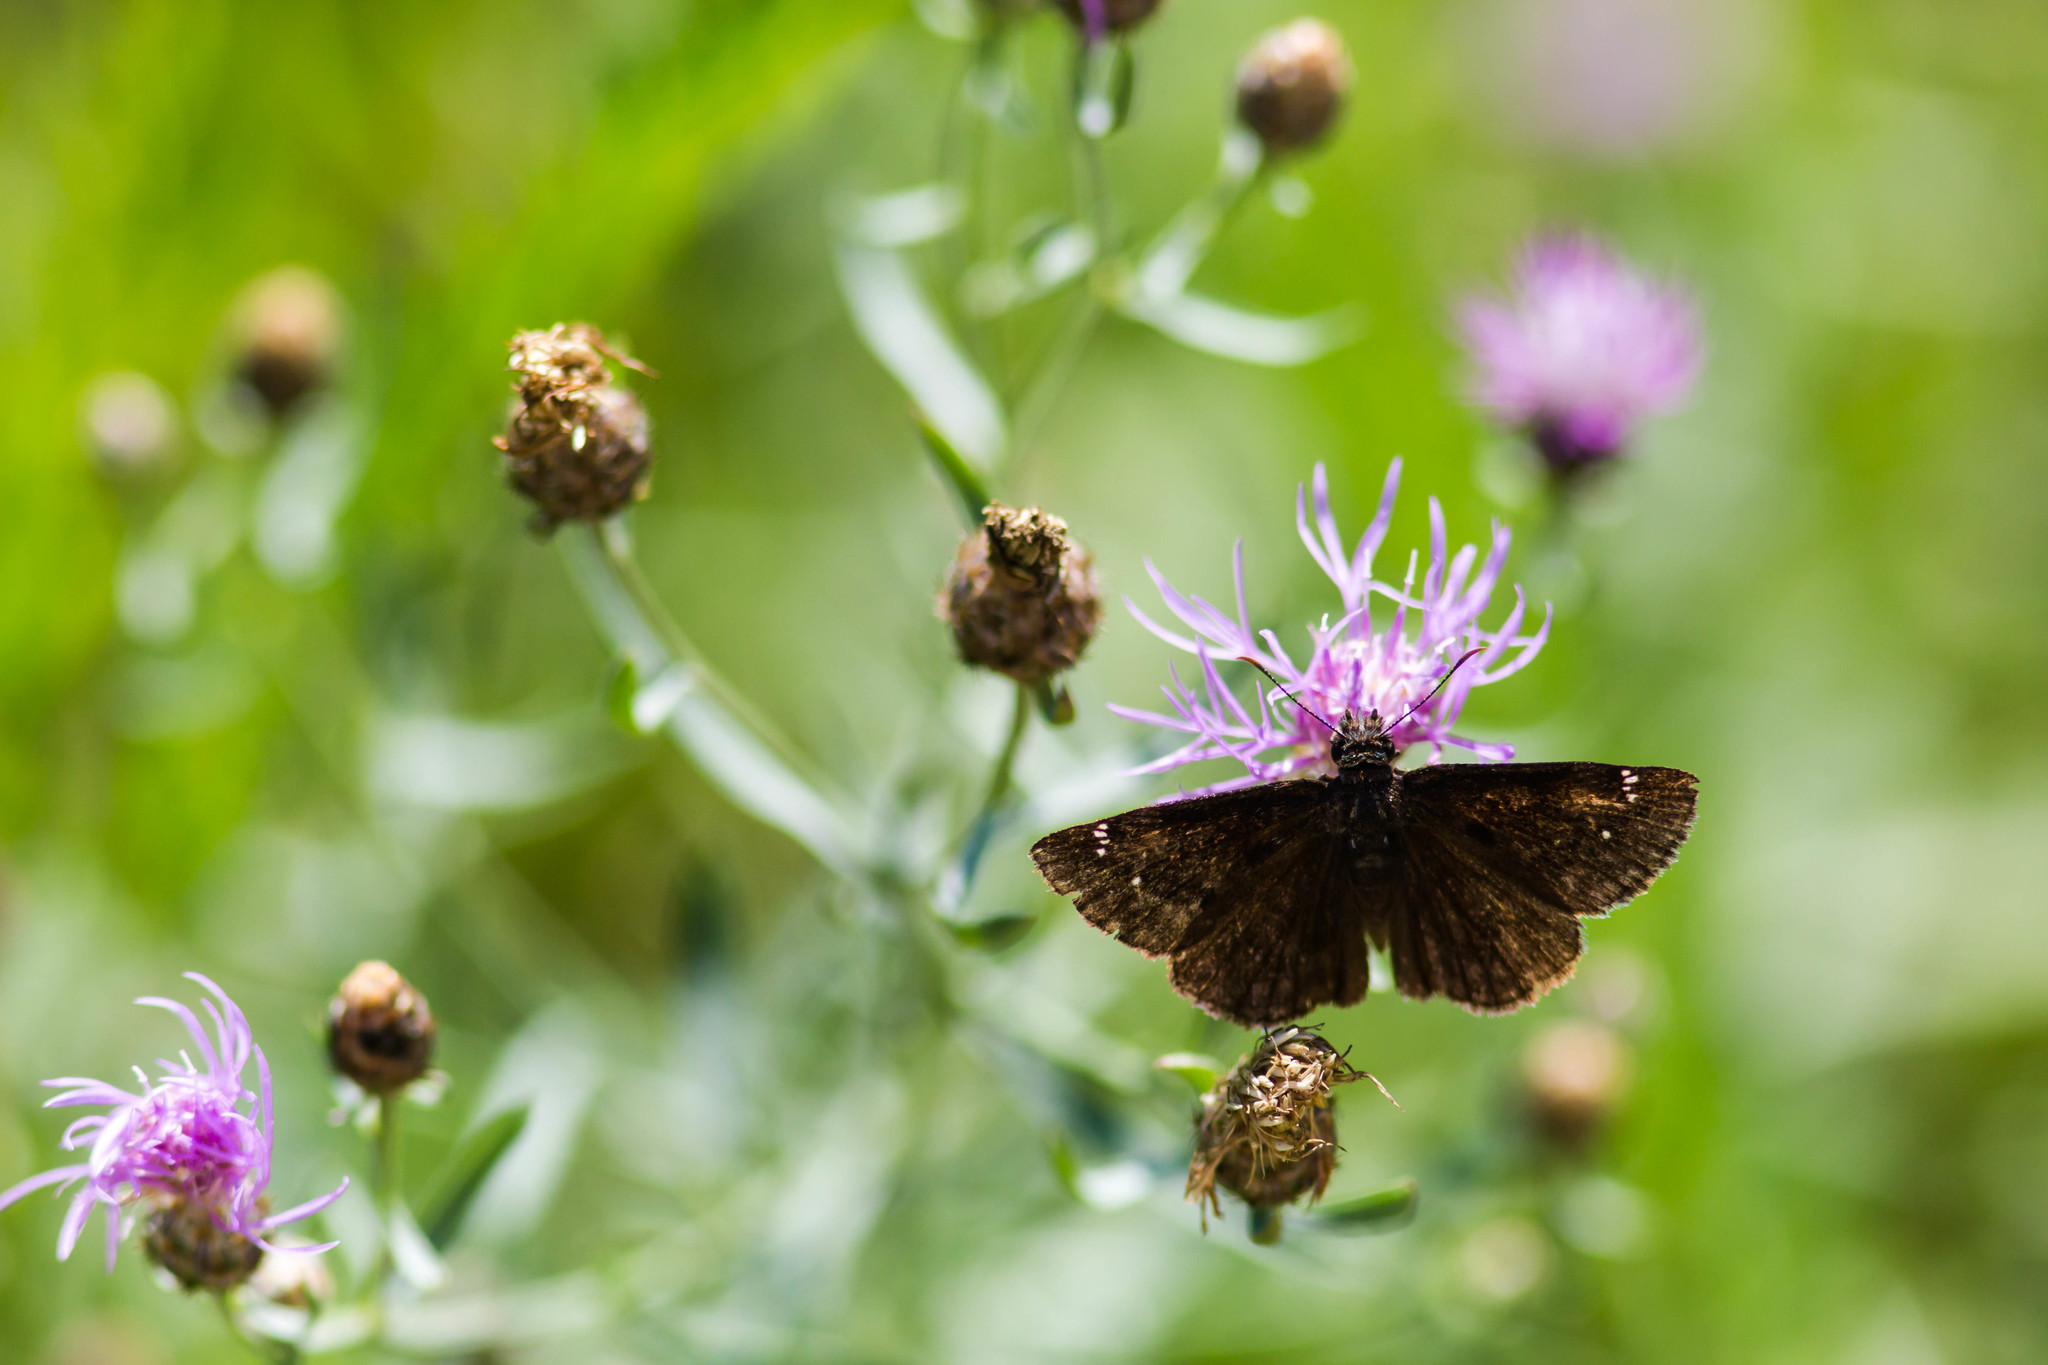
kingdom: Animalia
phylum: Arthropoda
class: Insecta
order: Lepidoptera
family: Hesperiidae
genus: Erynnis
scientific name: Erynnis baptisiae
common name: Wild indigo duskywing
